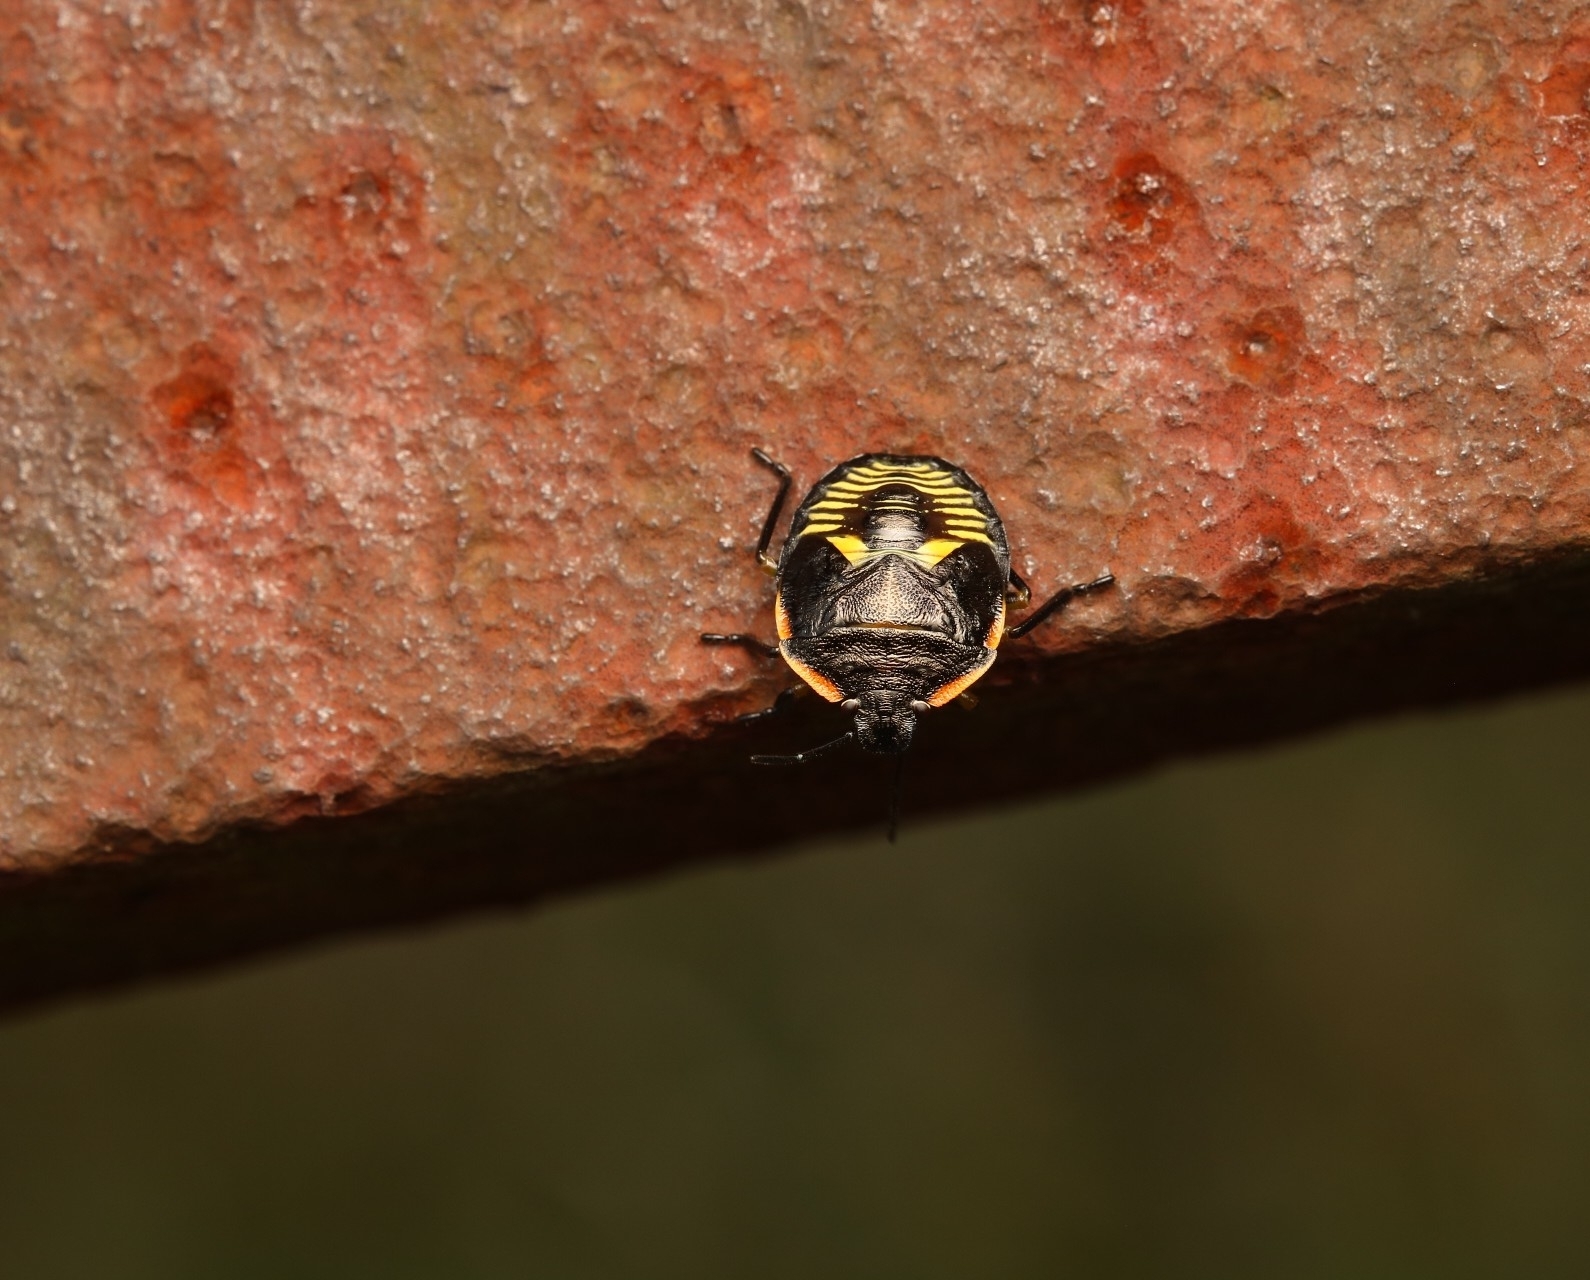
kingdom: Animalia
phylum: Arthropoda
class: Insecta
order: Hemiptera
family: Pentatomidae
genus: Chinavia
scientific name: Chinavia hilaris
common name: Green stink bug
